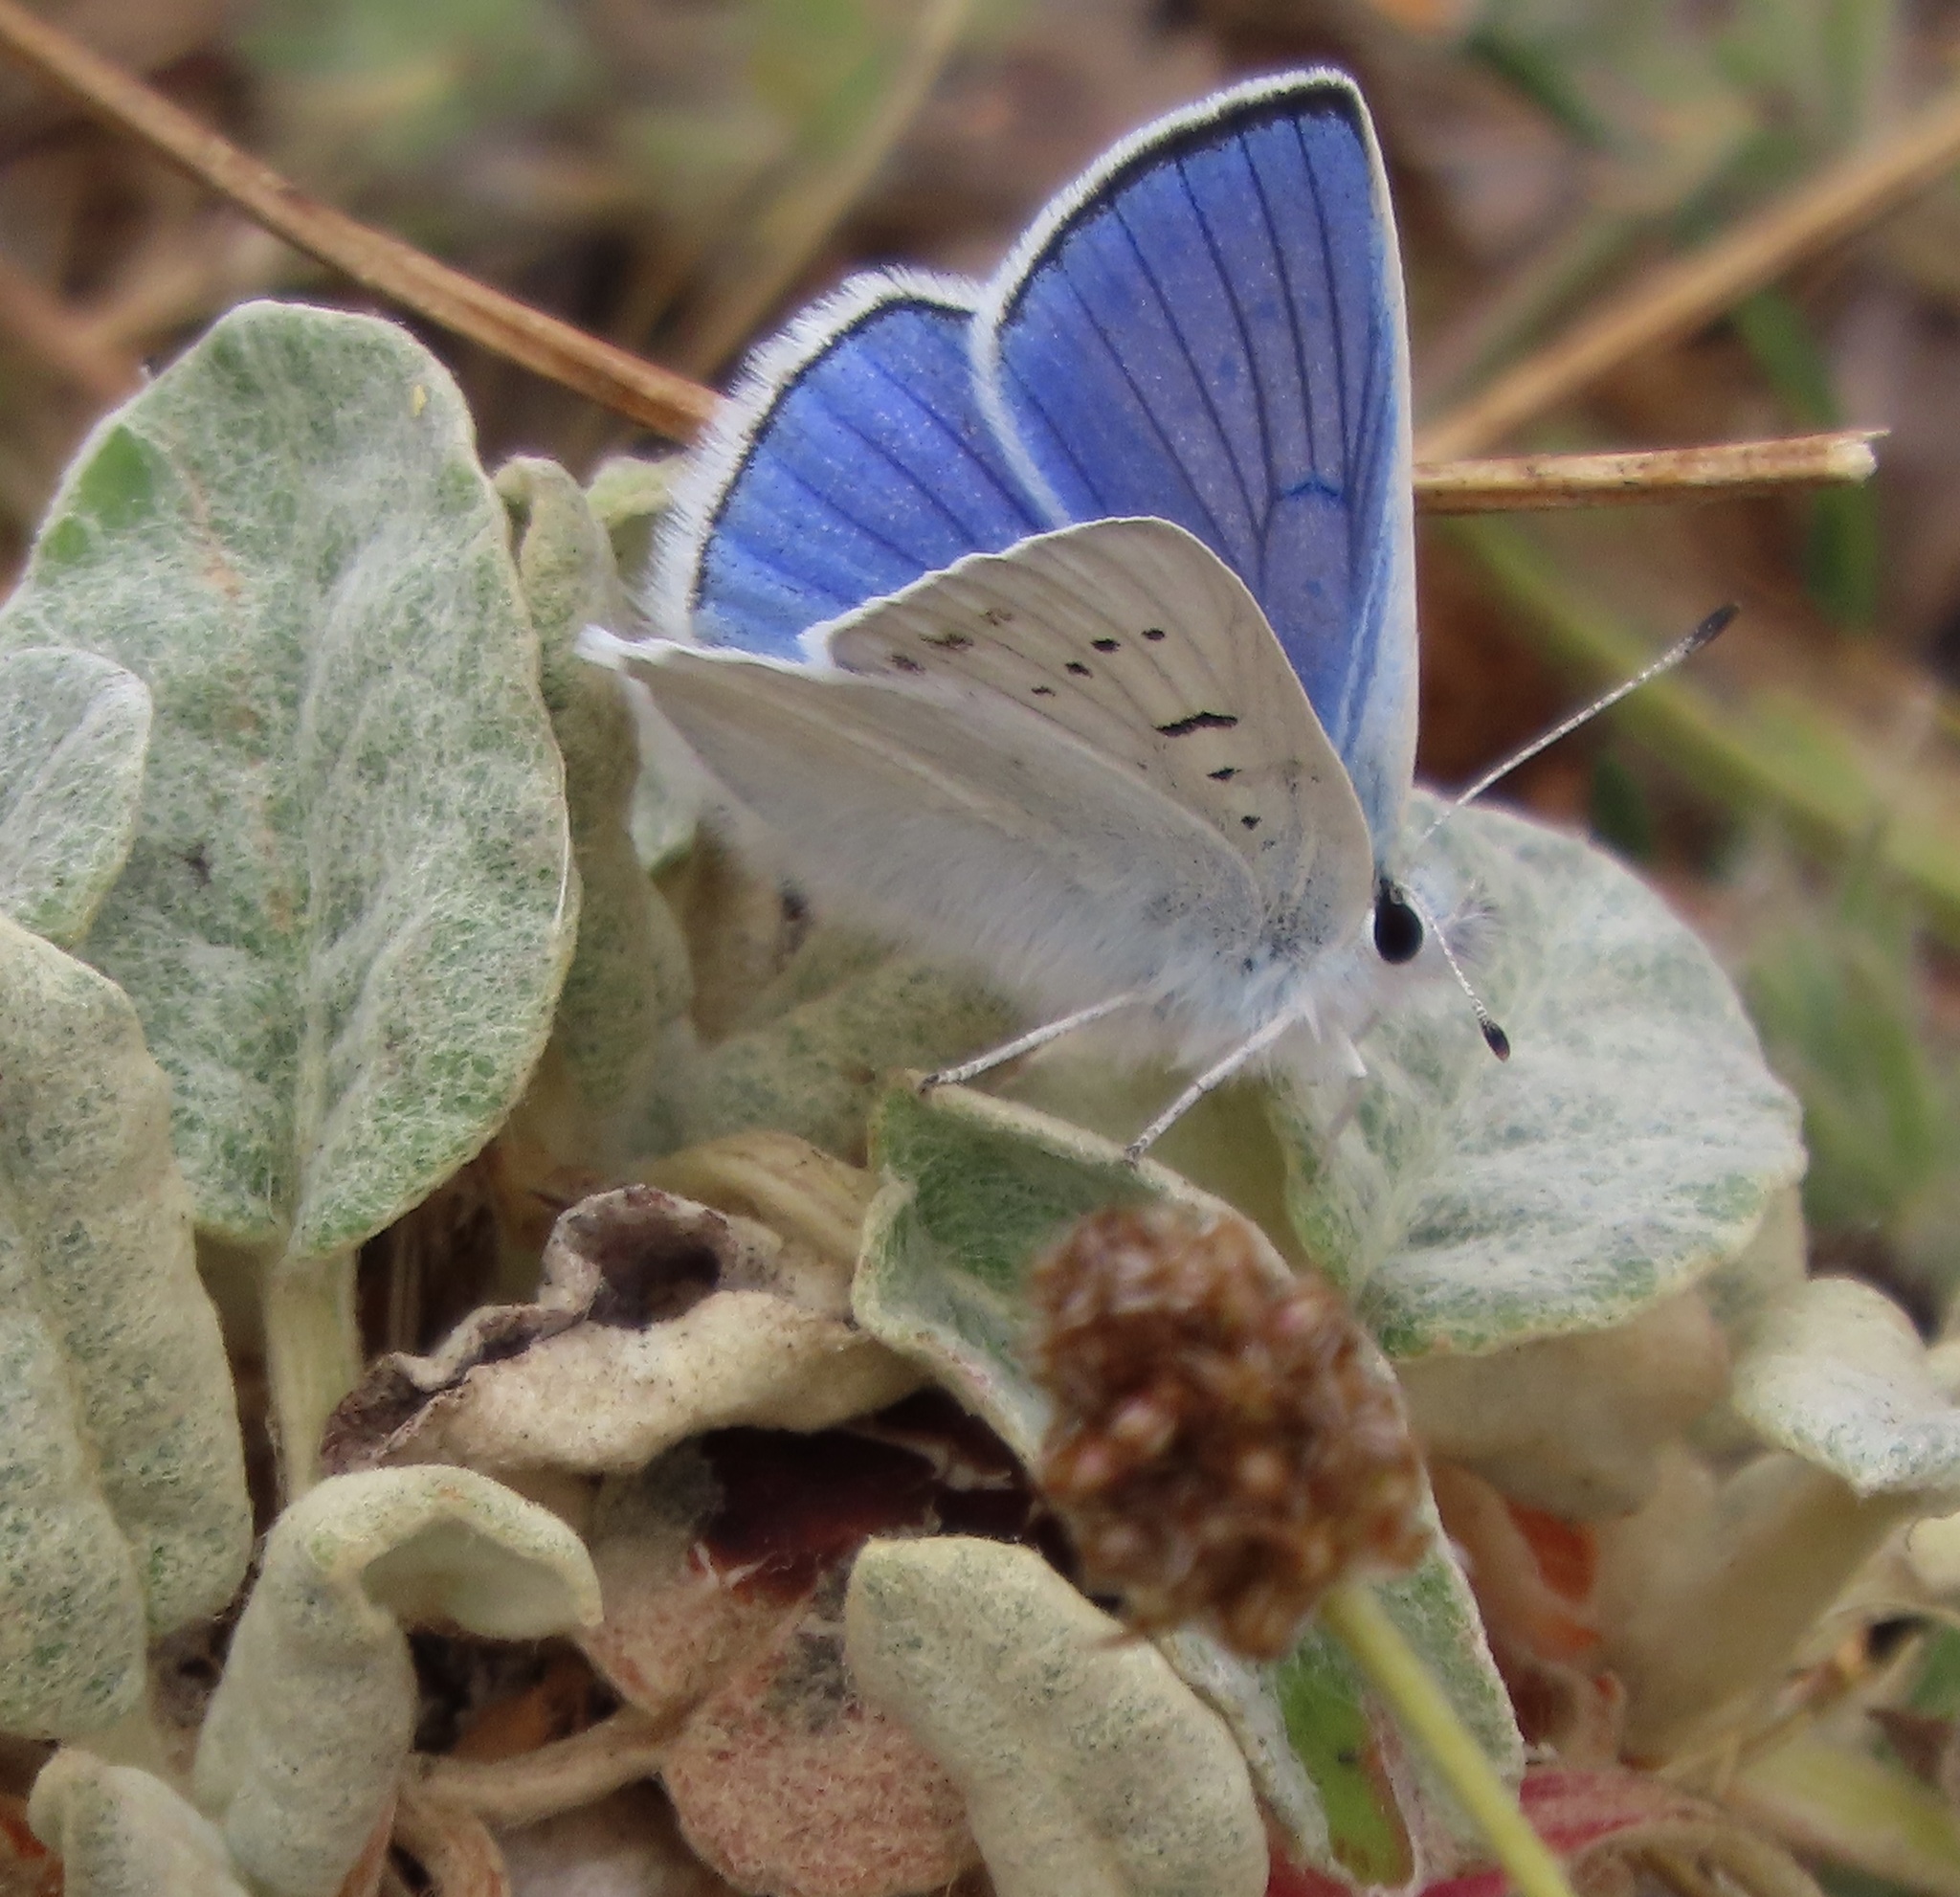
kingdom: Animalia
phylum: Arthropoda
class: Insecta
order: Lepidoptera
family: Lycaenidae
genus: Tharsalea
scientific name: Tharsalea heteronea
